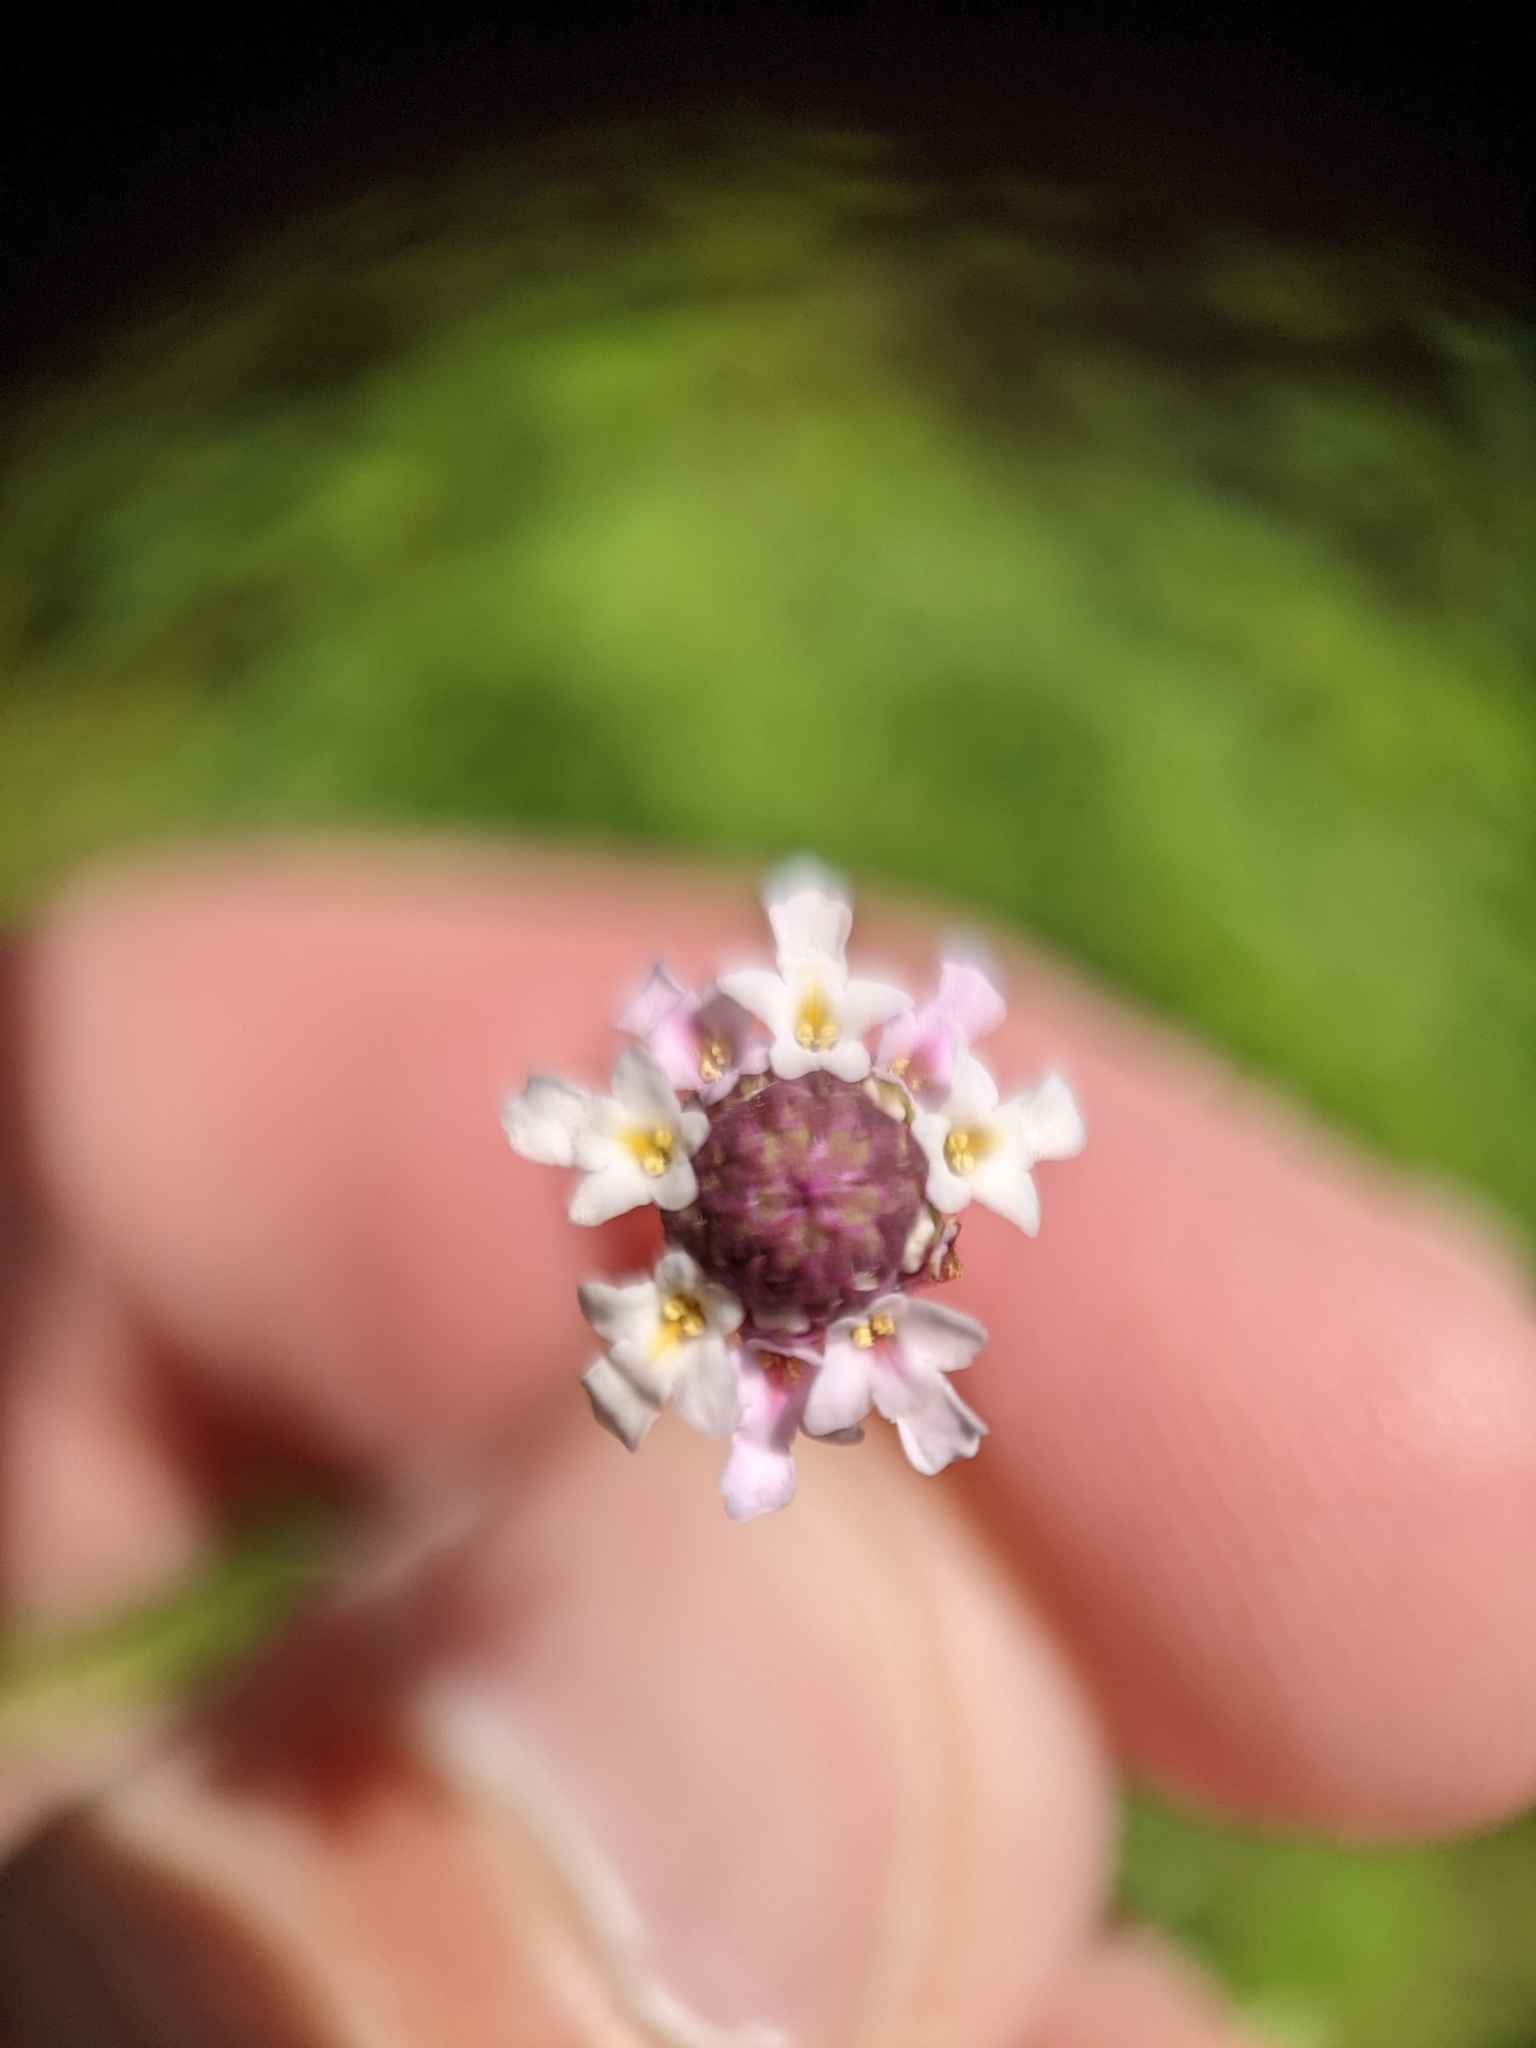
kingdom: Plantae
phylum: Tracheophyta
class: Magnoliopsida
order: Lamiales
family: Verbenaceae
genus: Phyla
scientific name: Phyla nodiflora
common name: Frogfruit
